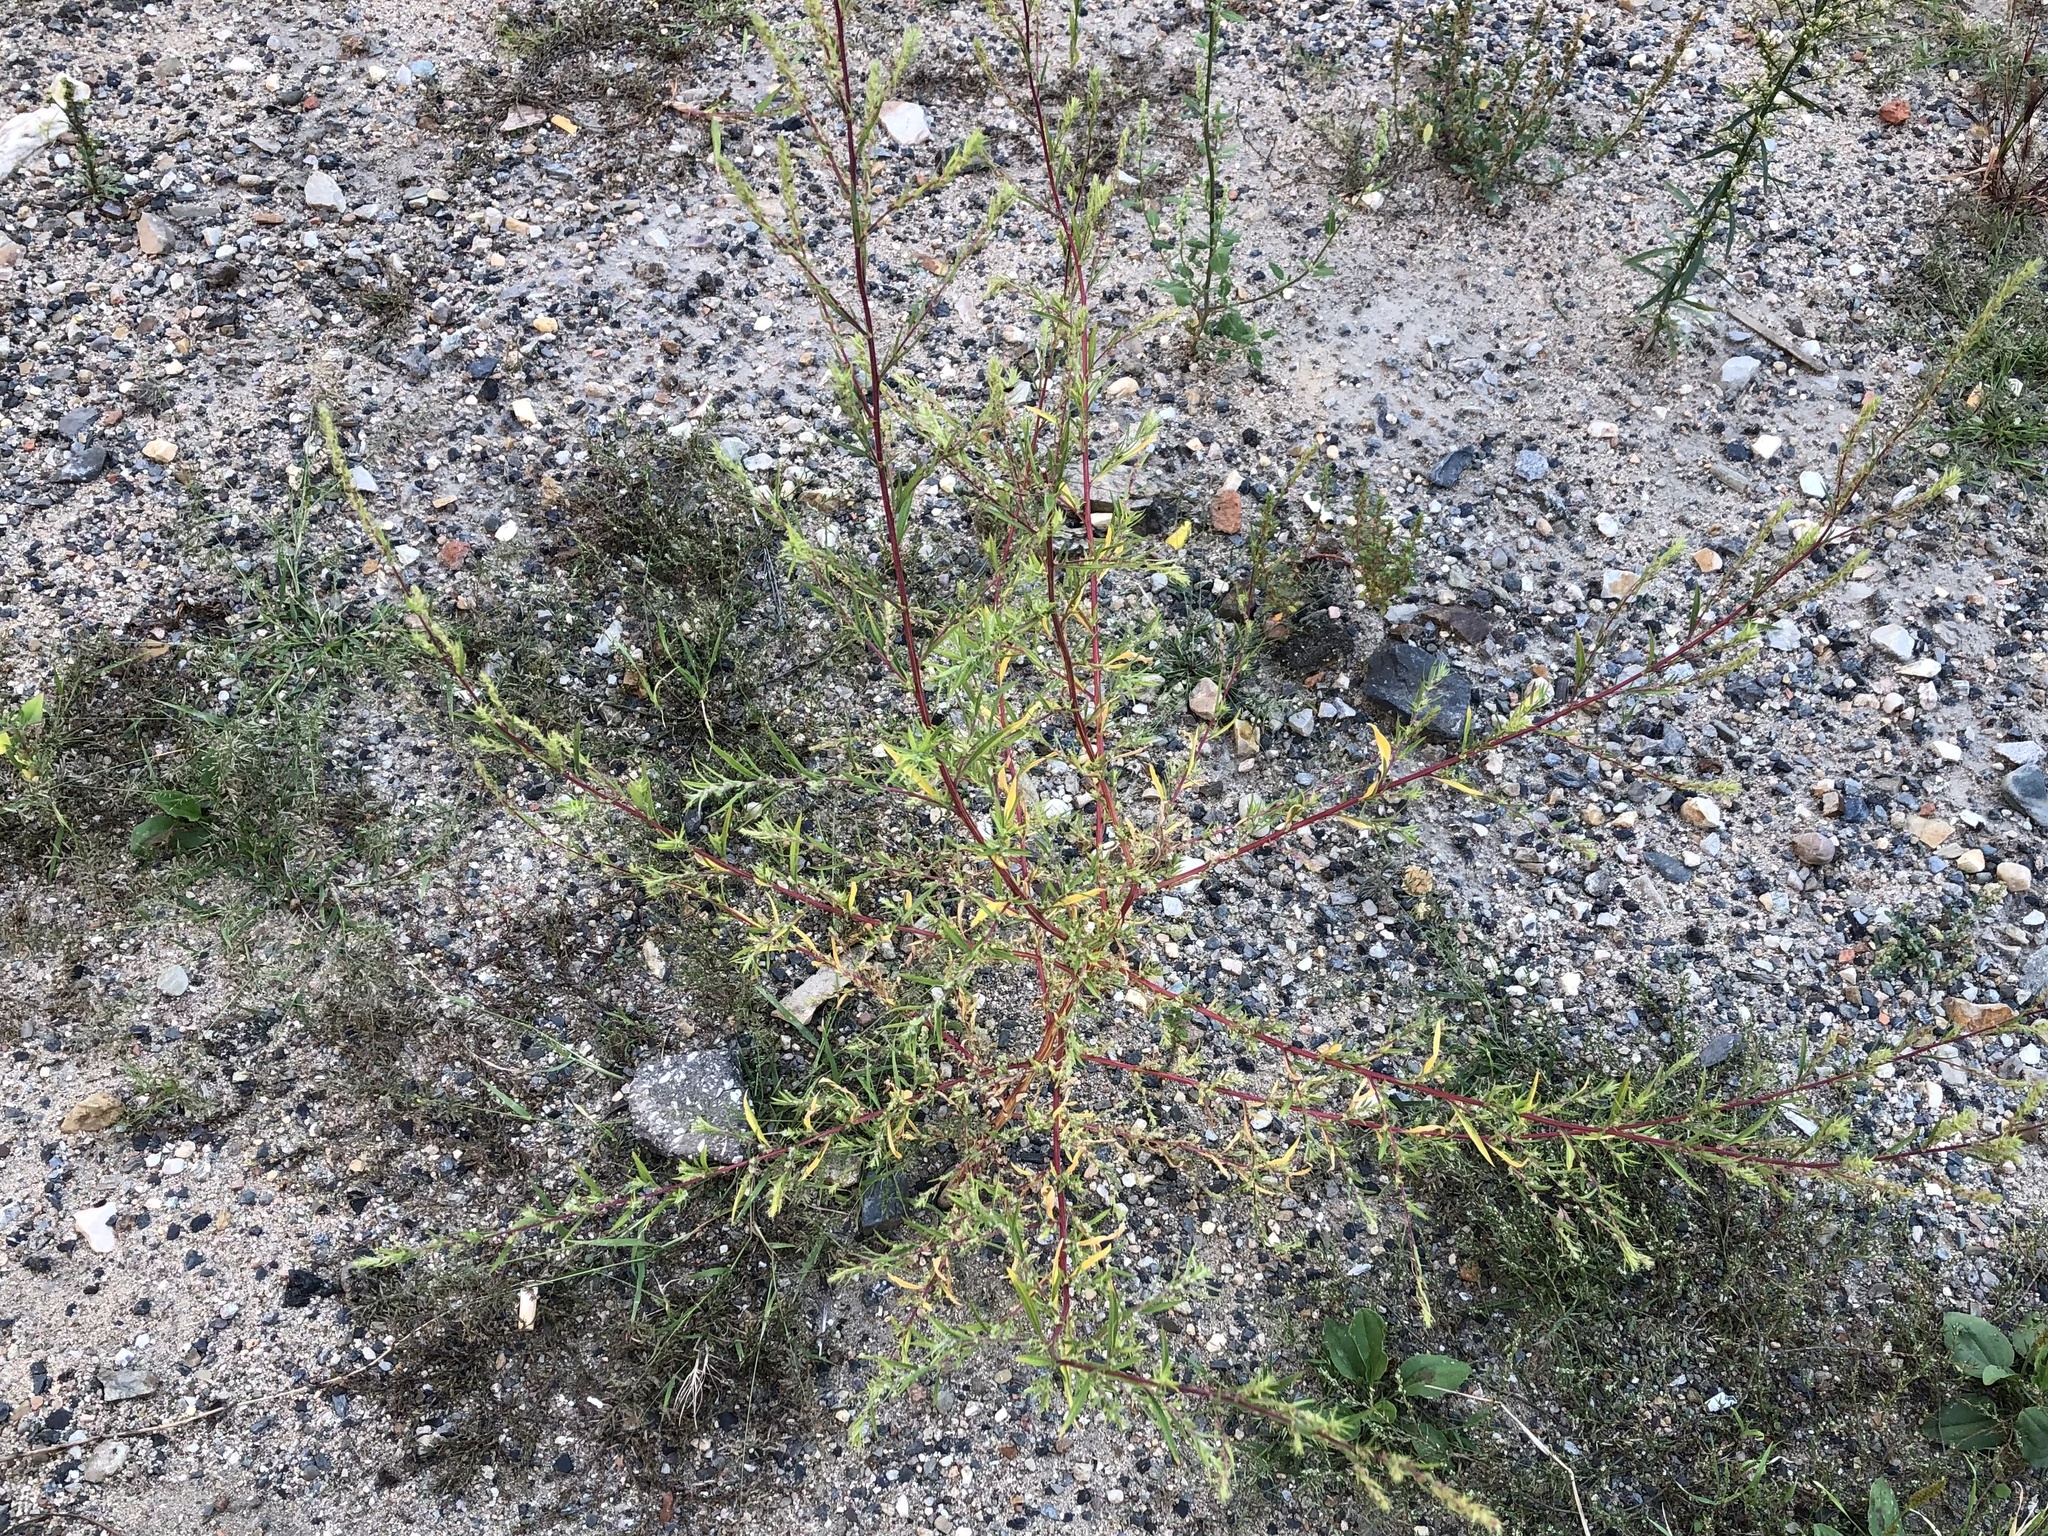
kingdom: Plantae
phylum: Tracheophyta
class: Magnoliopsida
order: Caryophyllales
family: Amaranthaceae
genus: Bassia
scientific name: Bassia scoparia
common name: Belvedere
